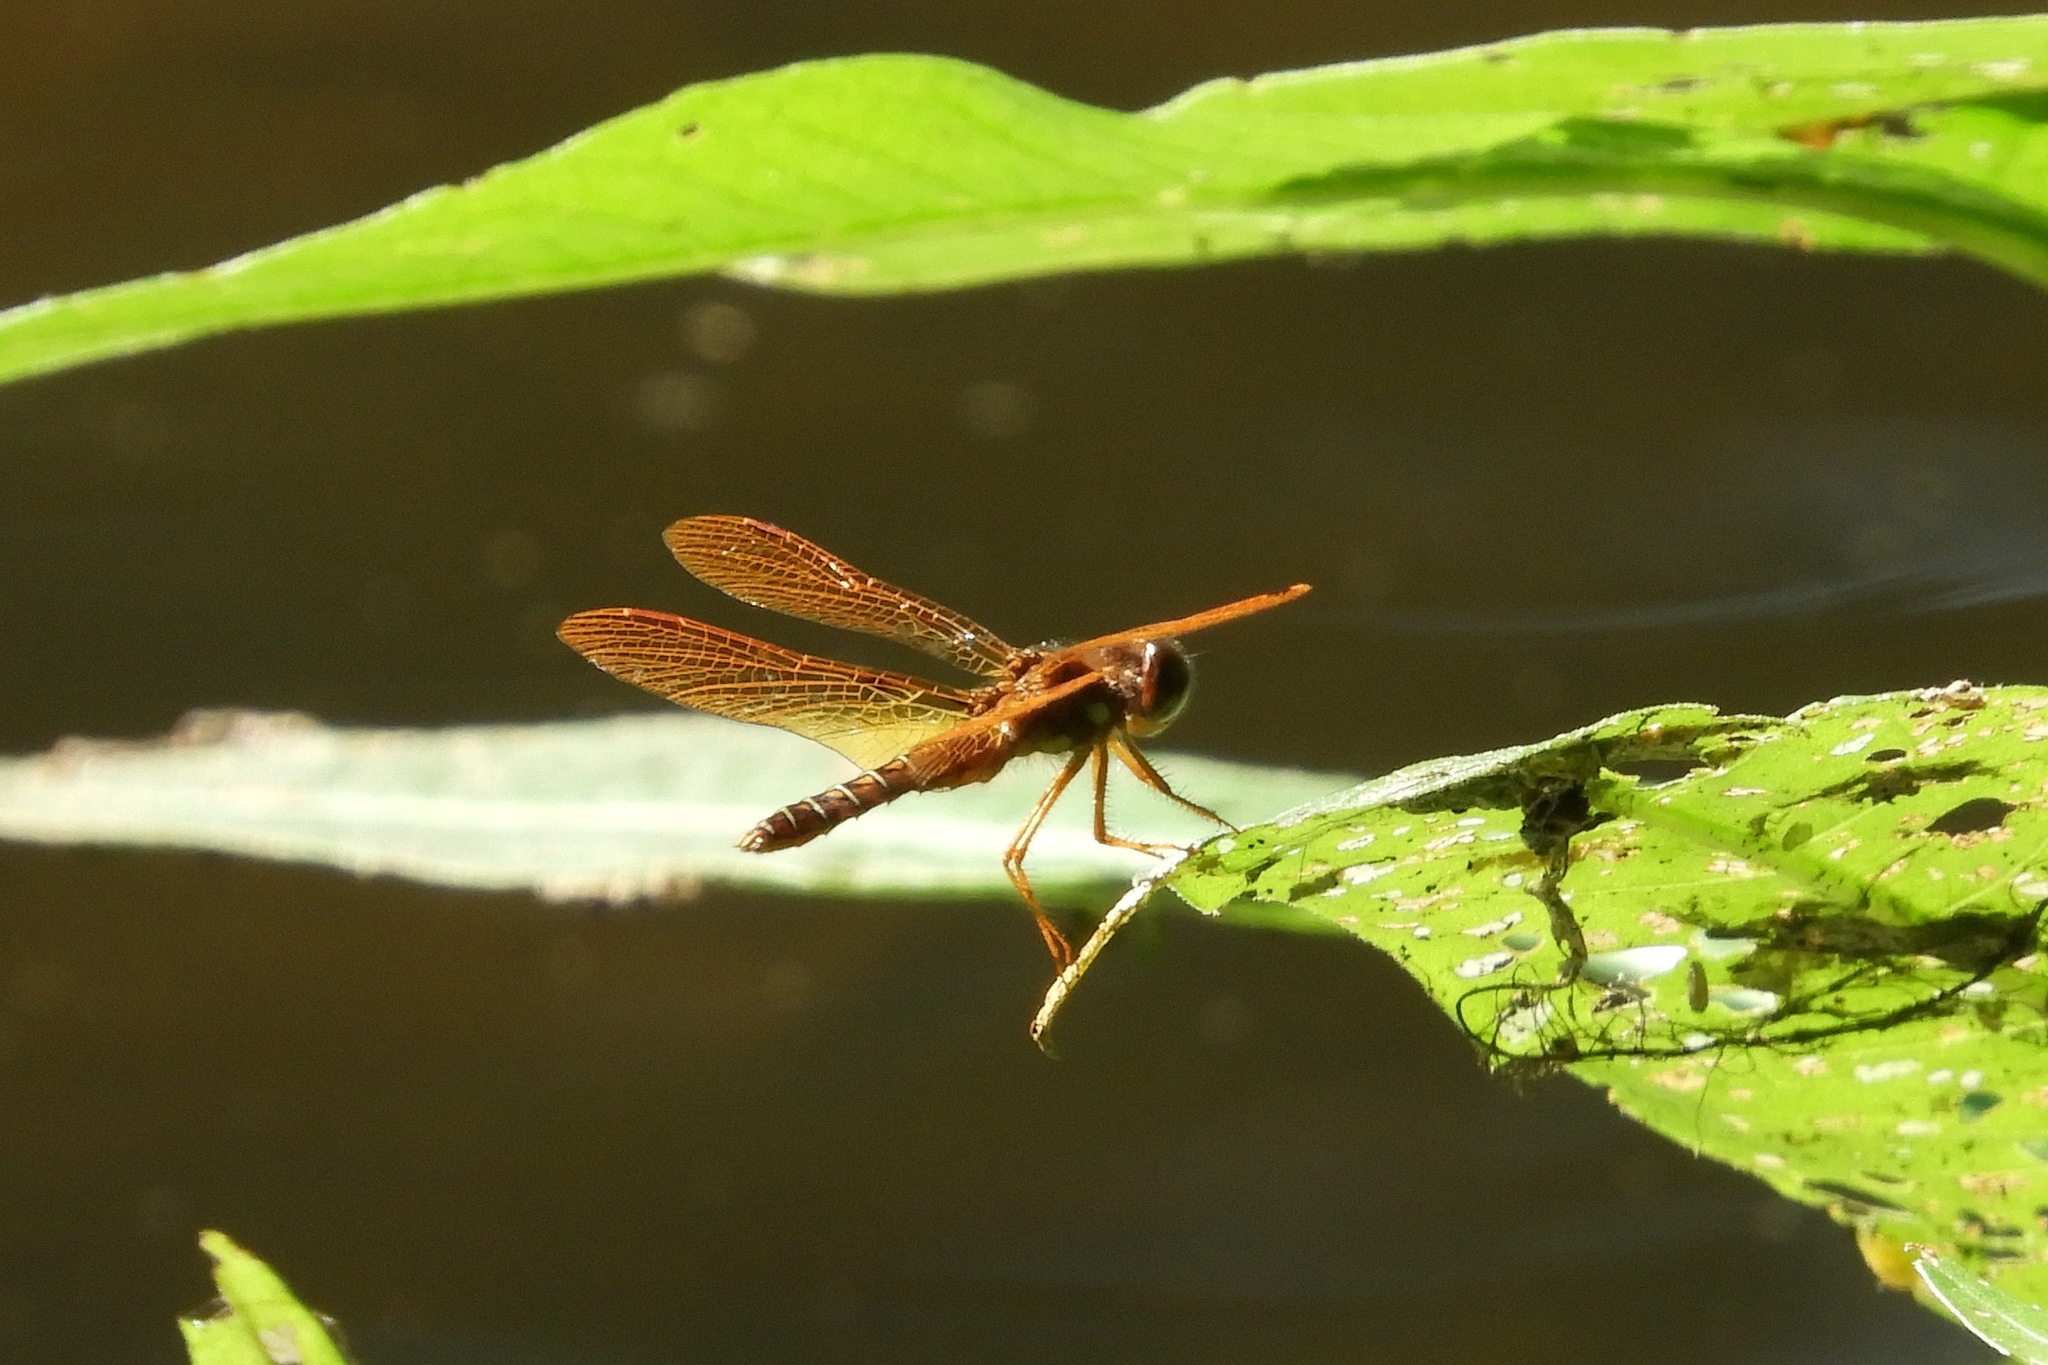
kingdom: Animalia
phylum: Arthropoda
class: Insecta
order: Odonata
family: Libellulidae
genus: Perithemis
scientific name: Perithemis tenera
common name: Eastern amberwing
